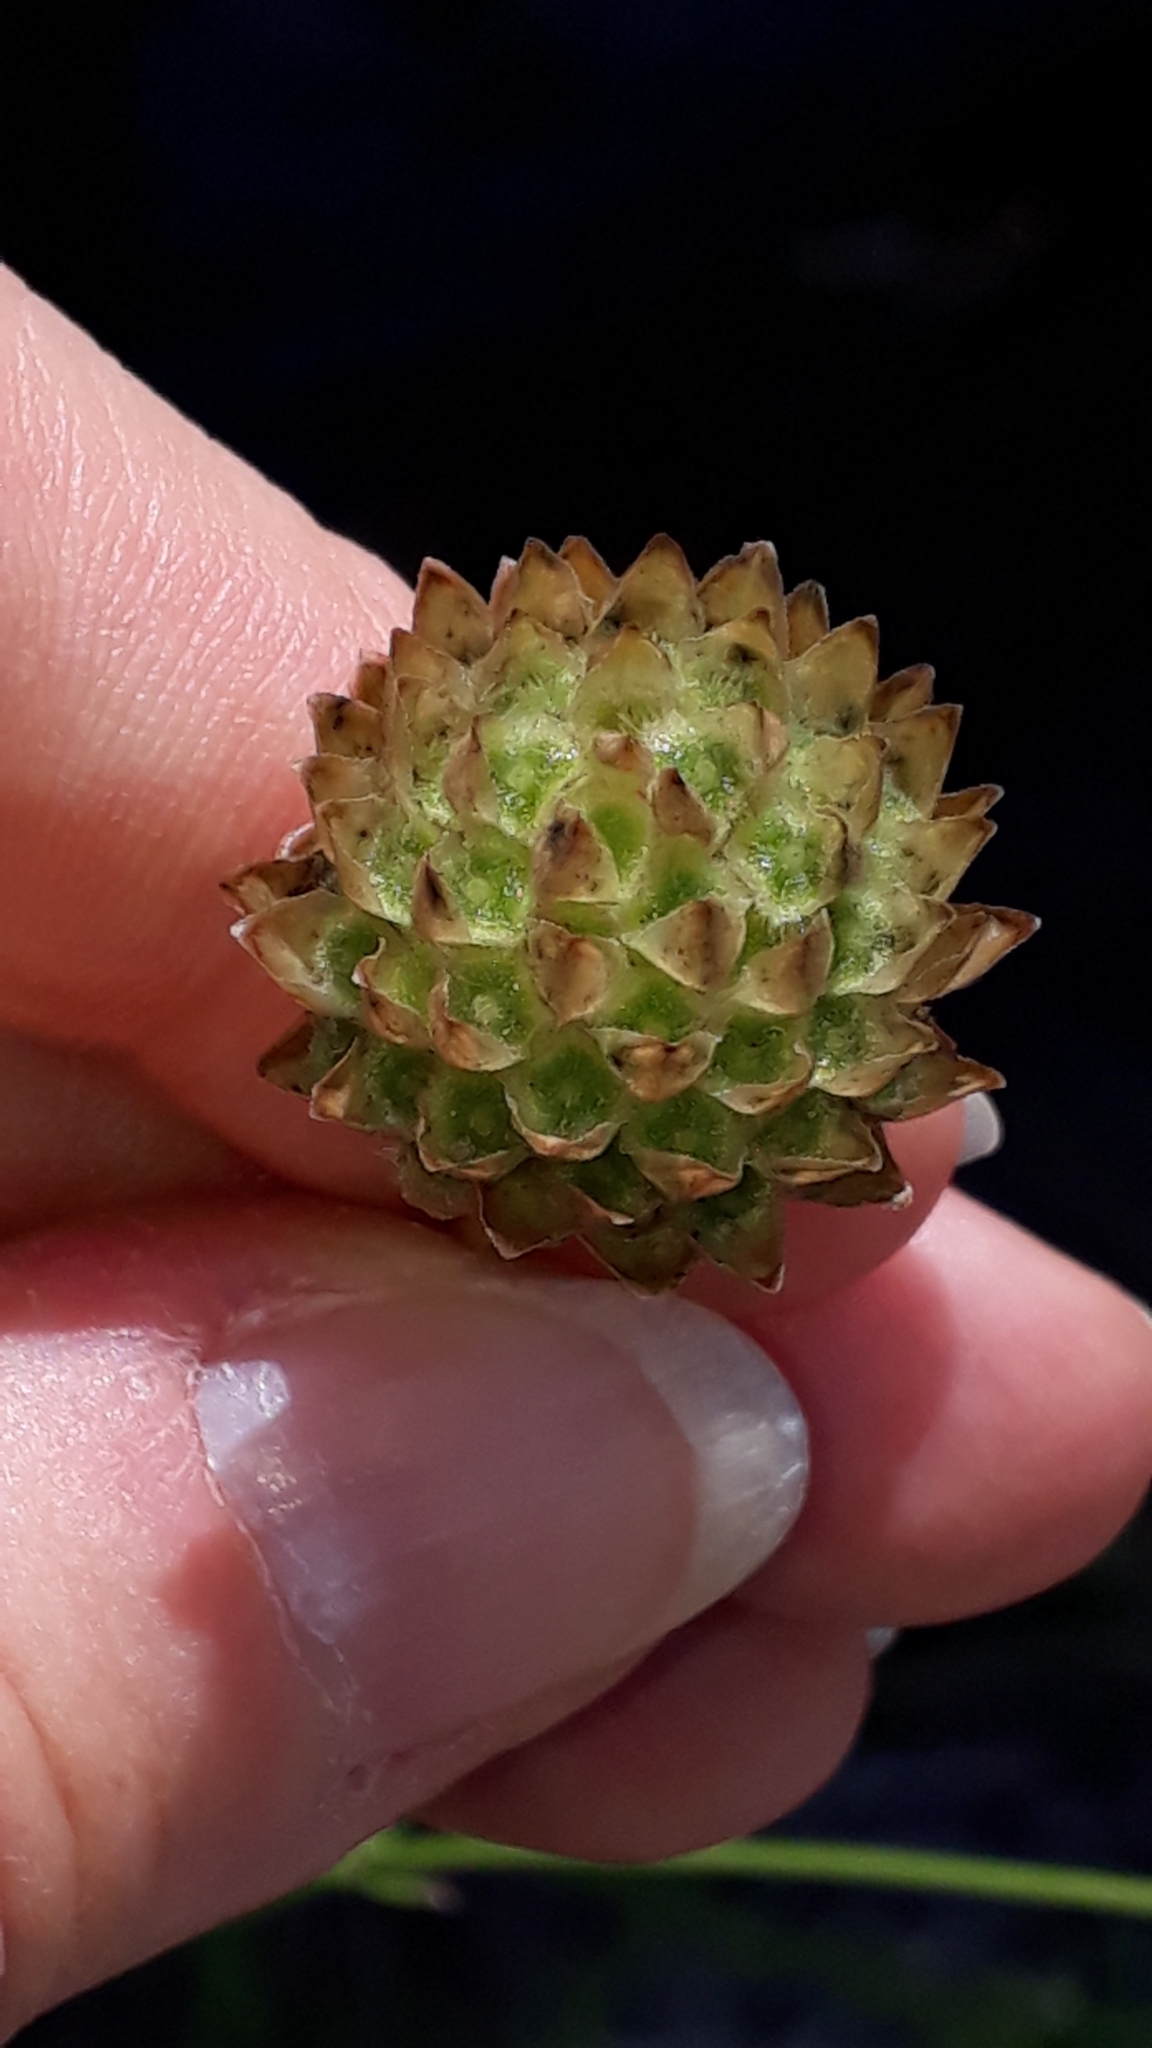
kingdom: Plantae
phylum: Tracheophyta
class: Magnoliopsida
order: Dipsacales
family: Caprifoliaceae
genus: Cephalaria
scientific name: Cephalaria leucantha
